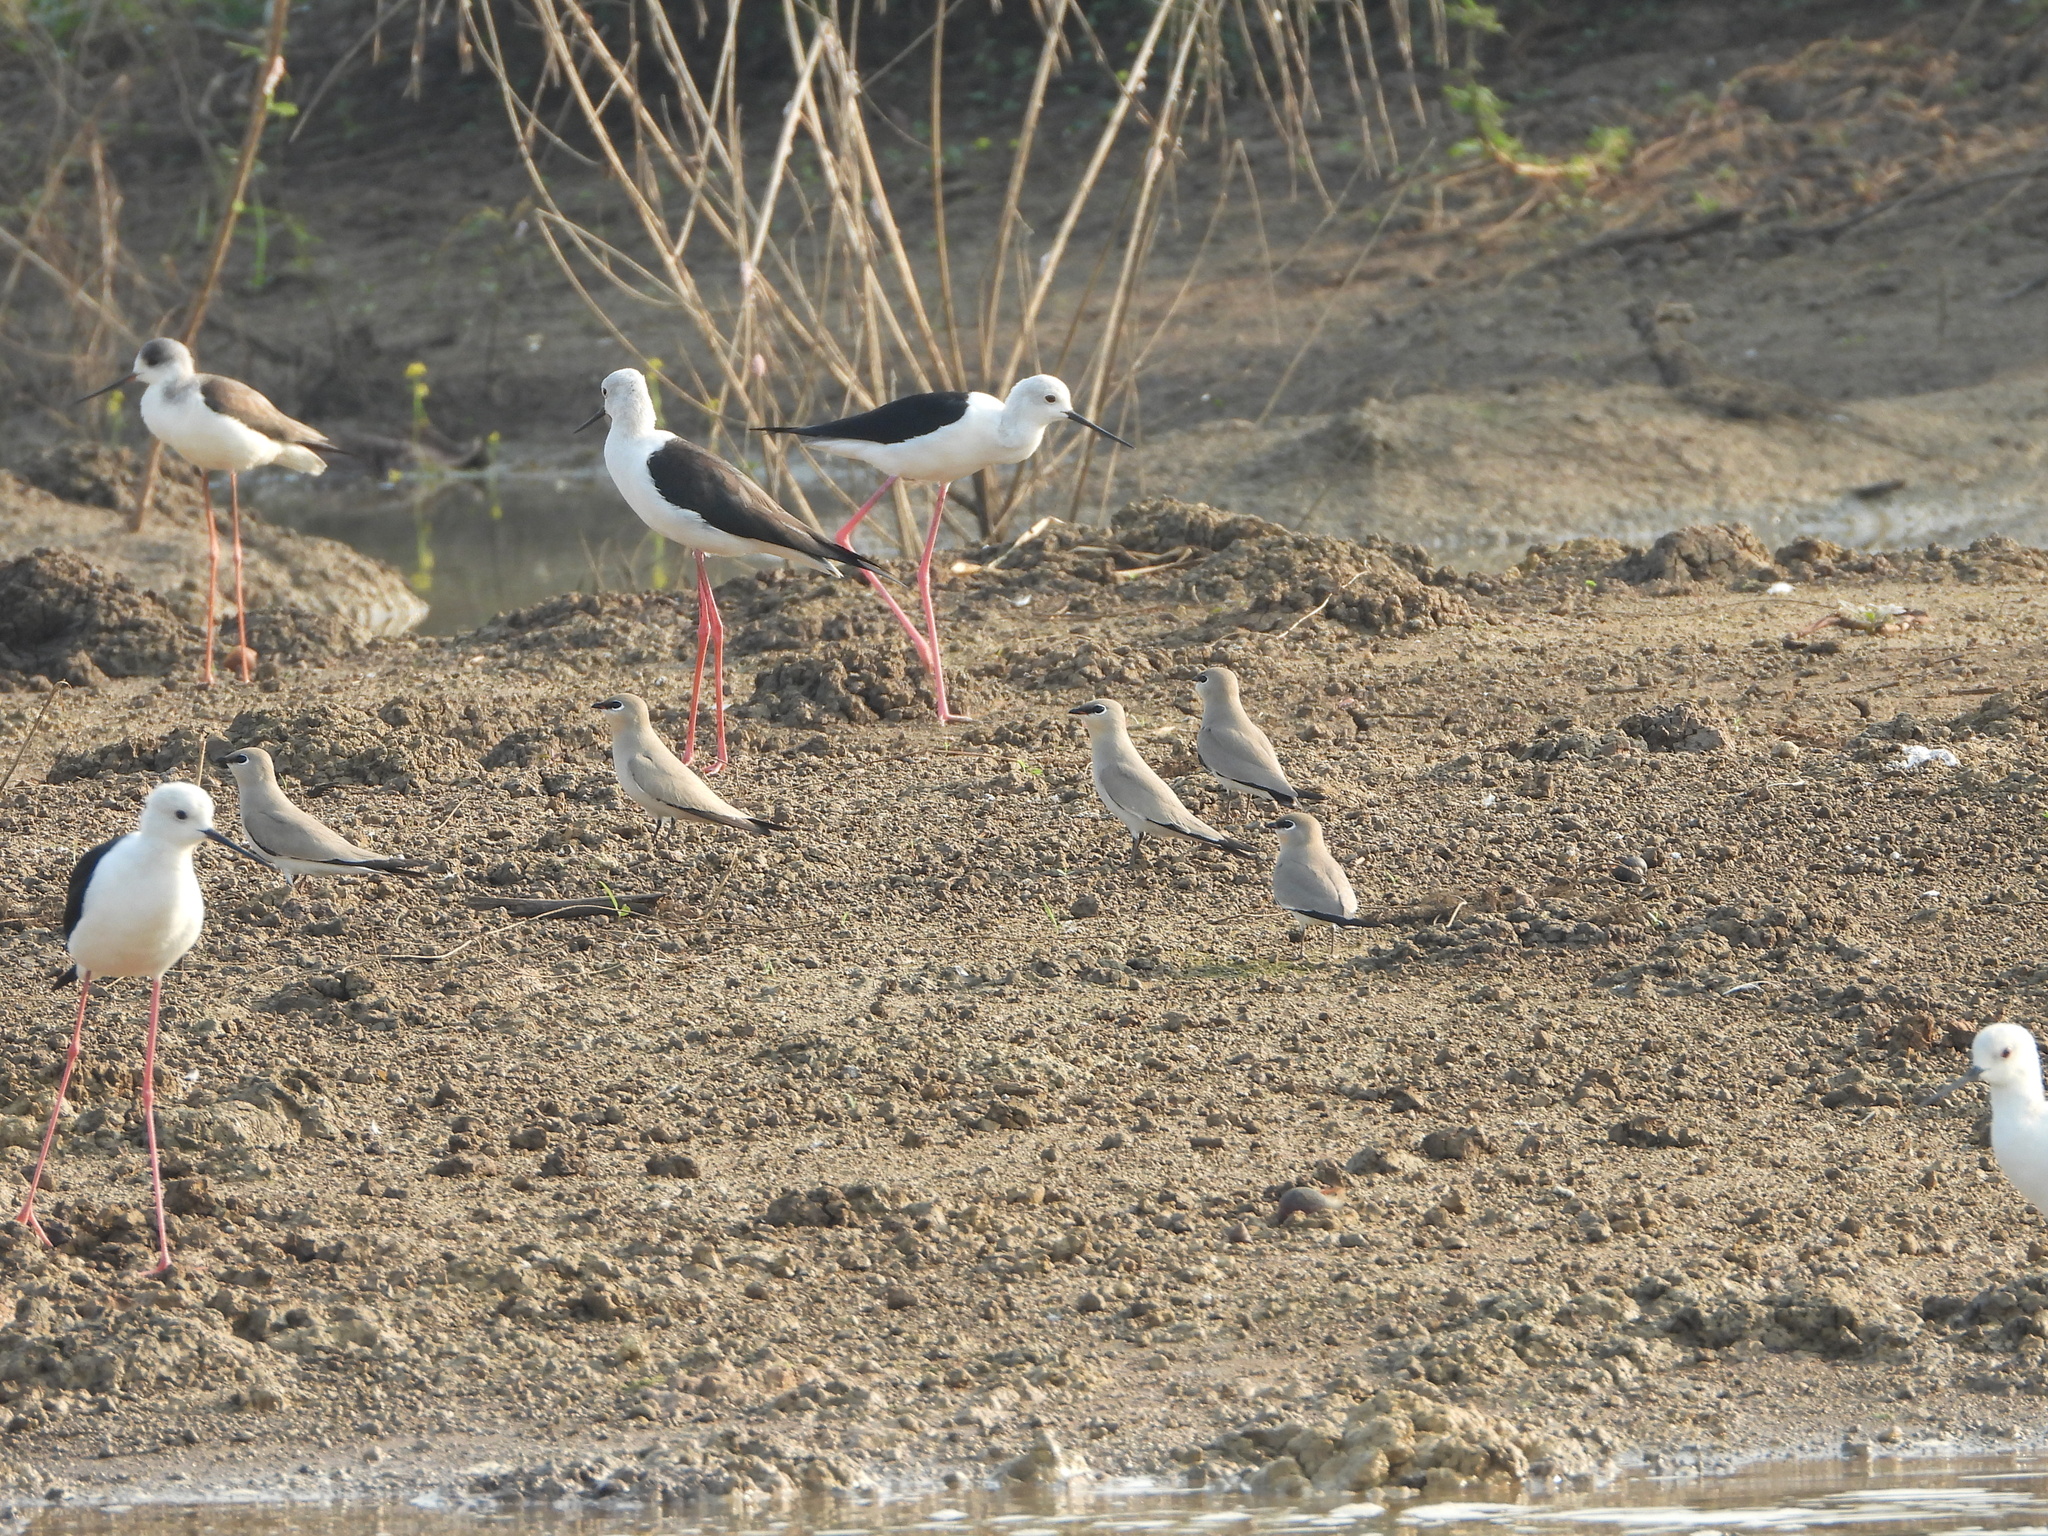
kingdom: Animalia
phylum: Chordata
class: Aves
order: Charadriiformes
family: Glareolidae
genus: Glareola
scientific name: Glareola lactea
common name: Small pratincole
